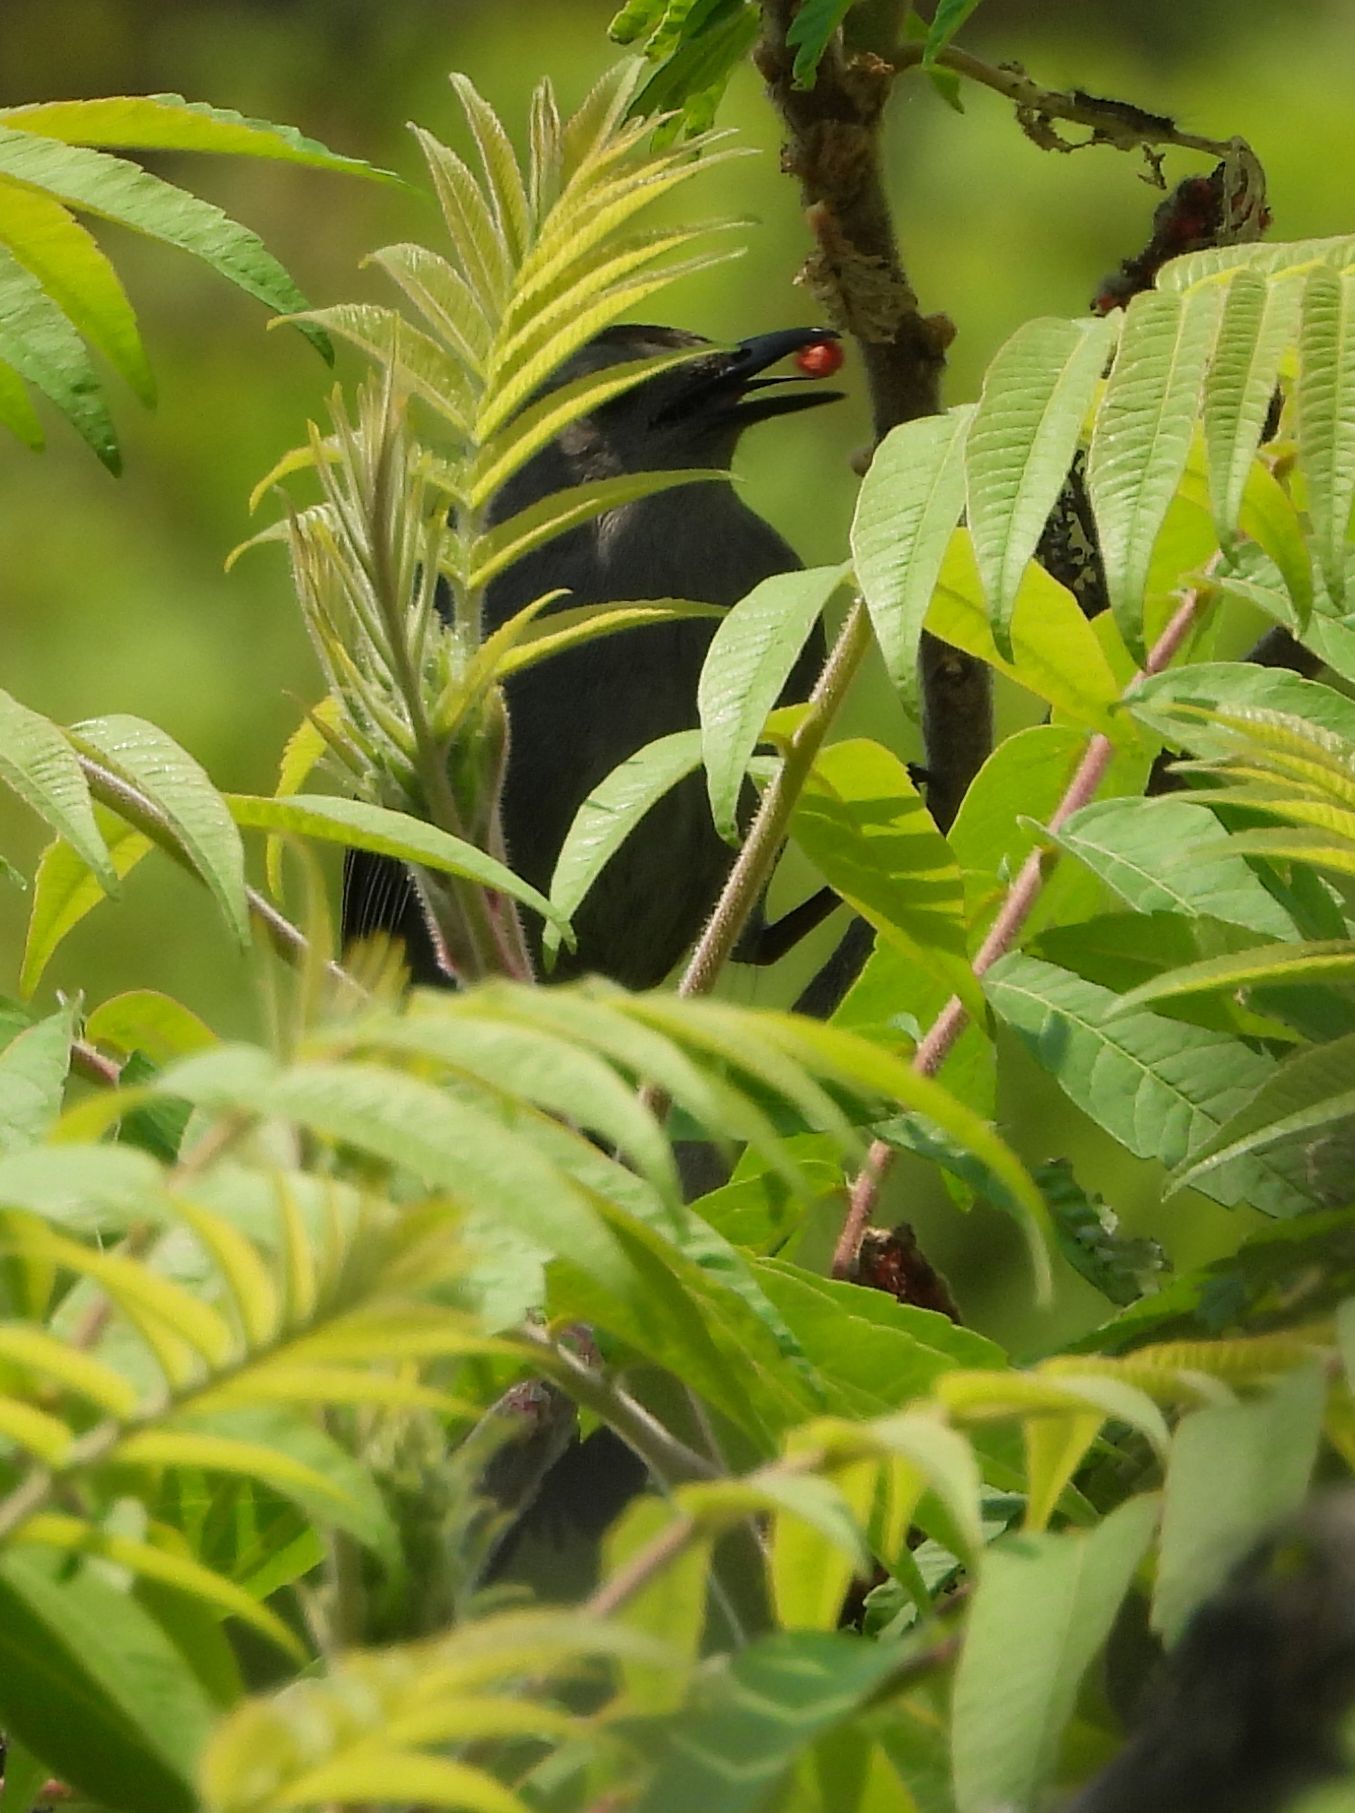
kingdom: Animalia
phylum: Chordata
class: Aves
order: Passeriformes
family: Mimidae
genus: Dumetella
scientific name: Dumetella carolinensis
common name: Gray catbird
